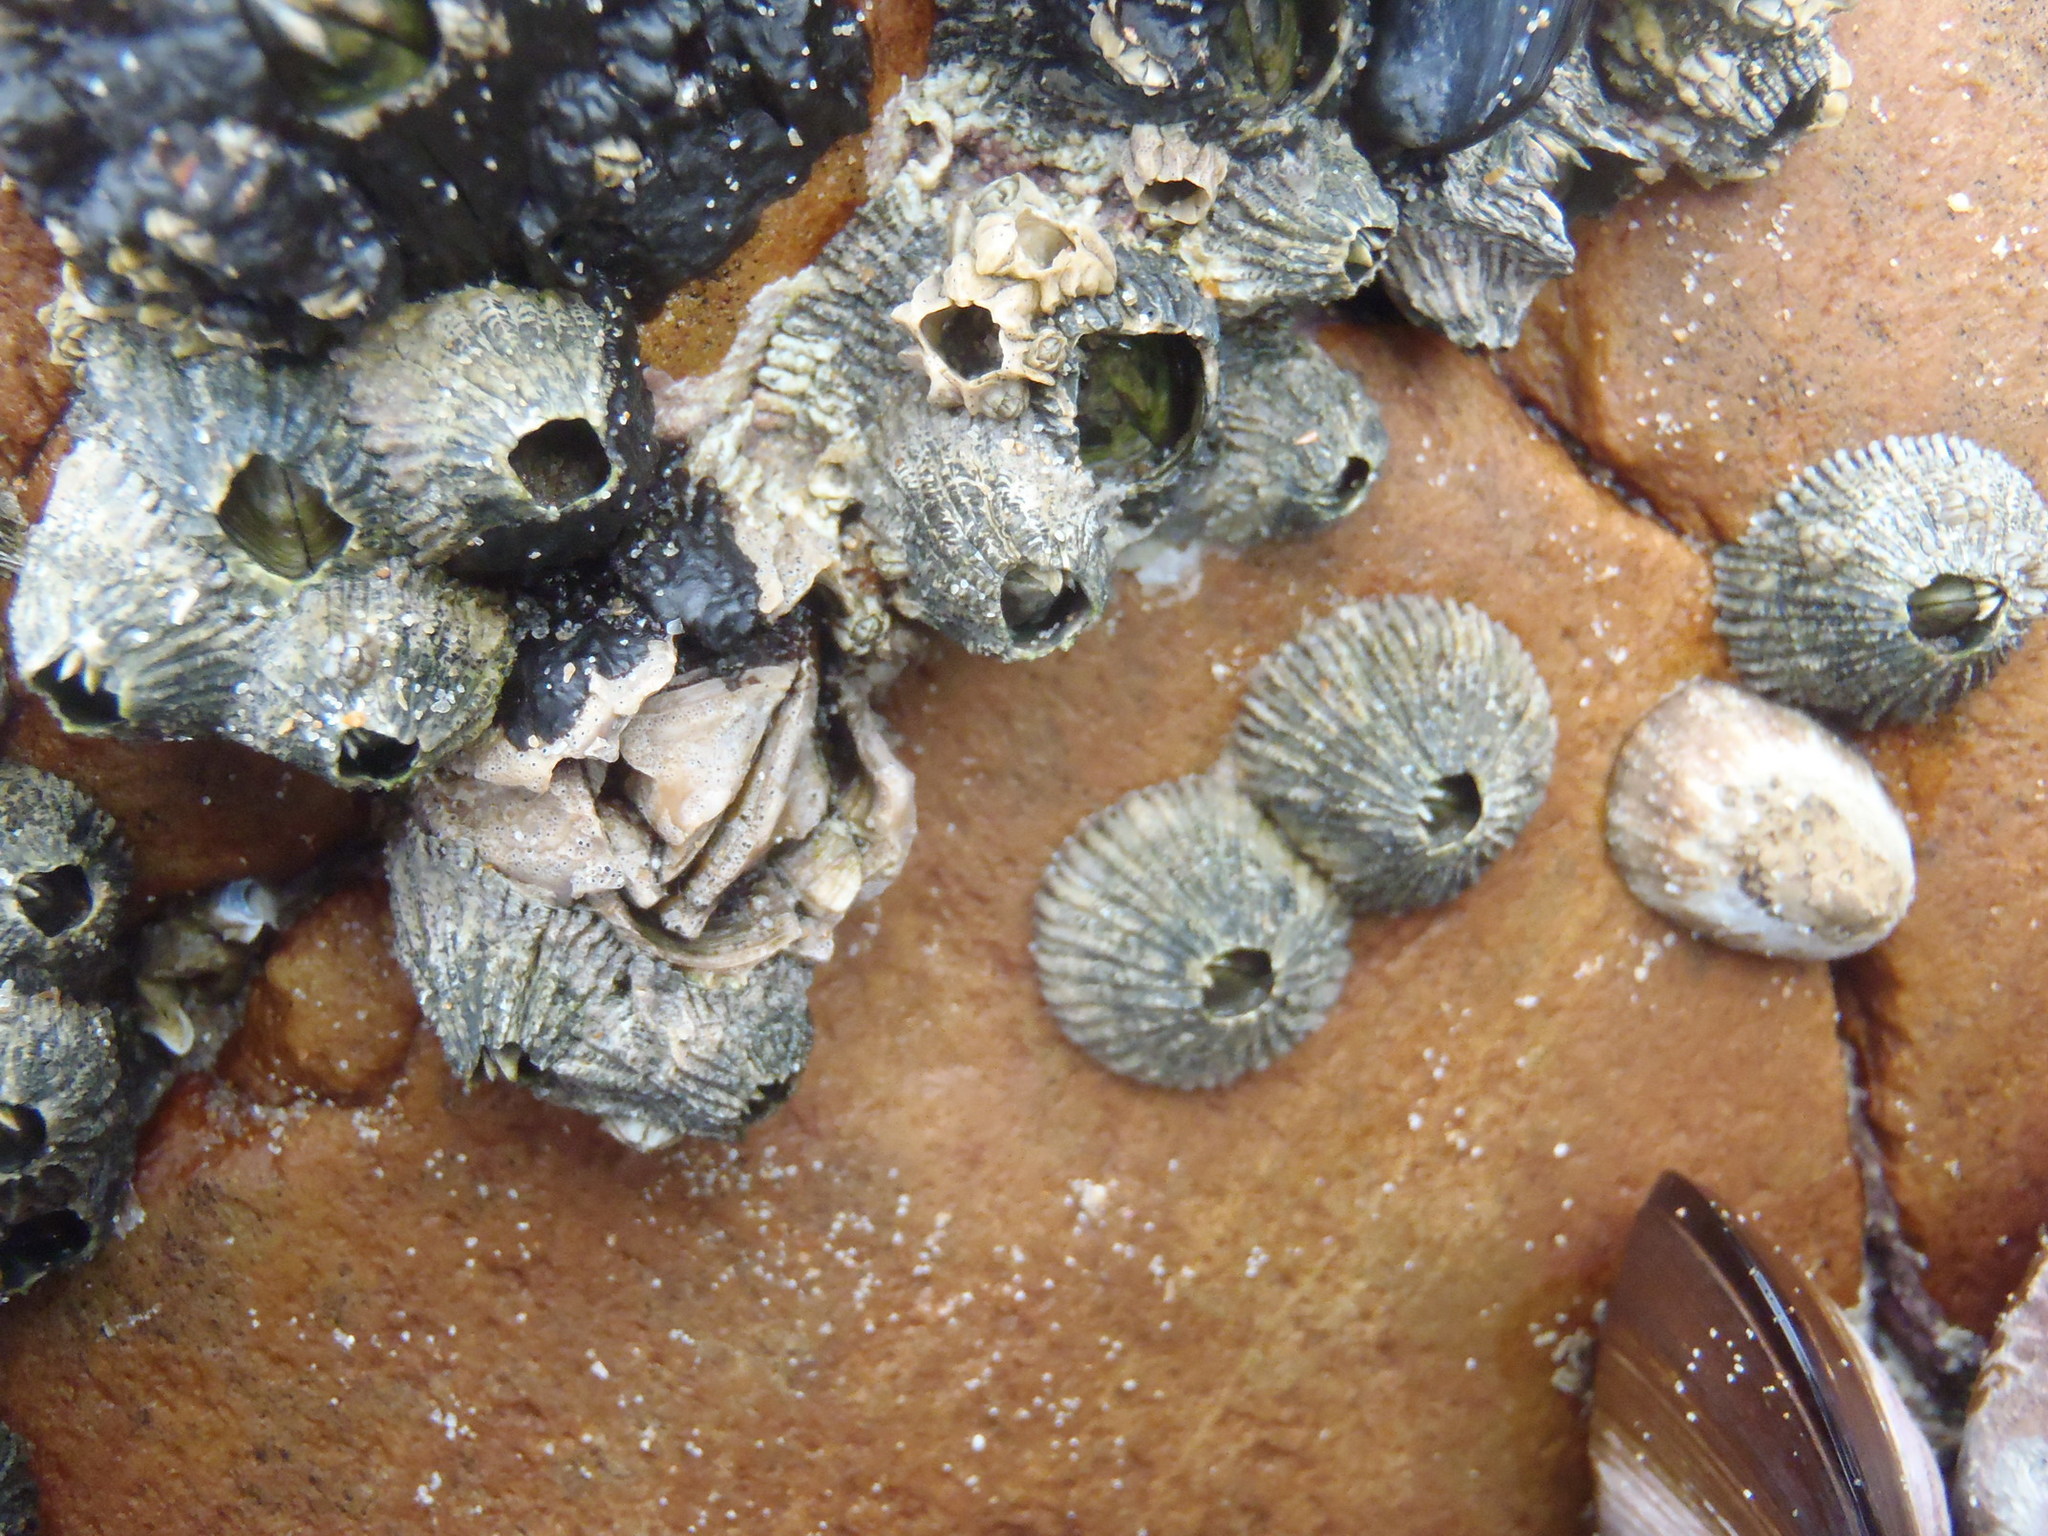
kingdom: Animalia
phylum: Arthropoda
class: Maxillopoda
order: Sessilia
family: Tetraclitidae
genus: Tetraclita
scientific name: Tetraclita serrata
